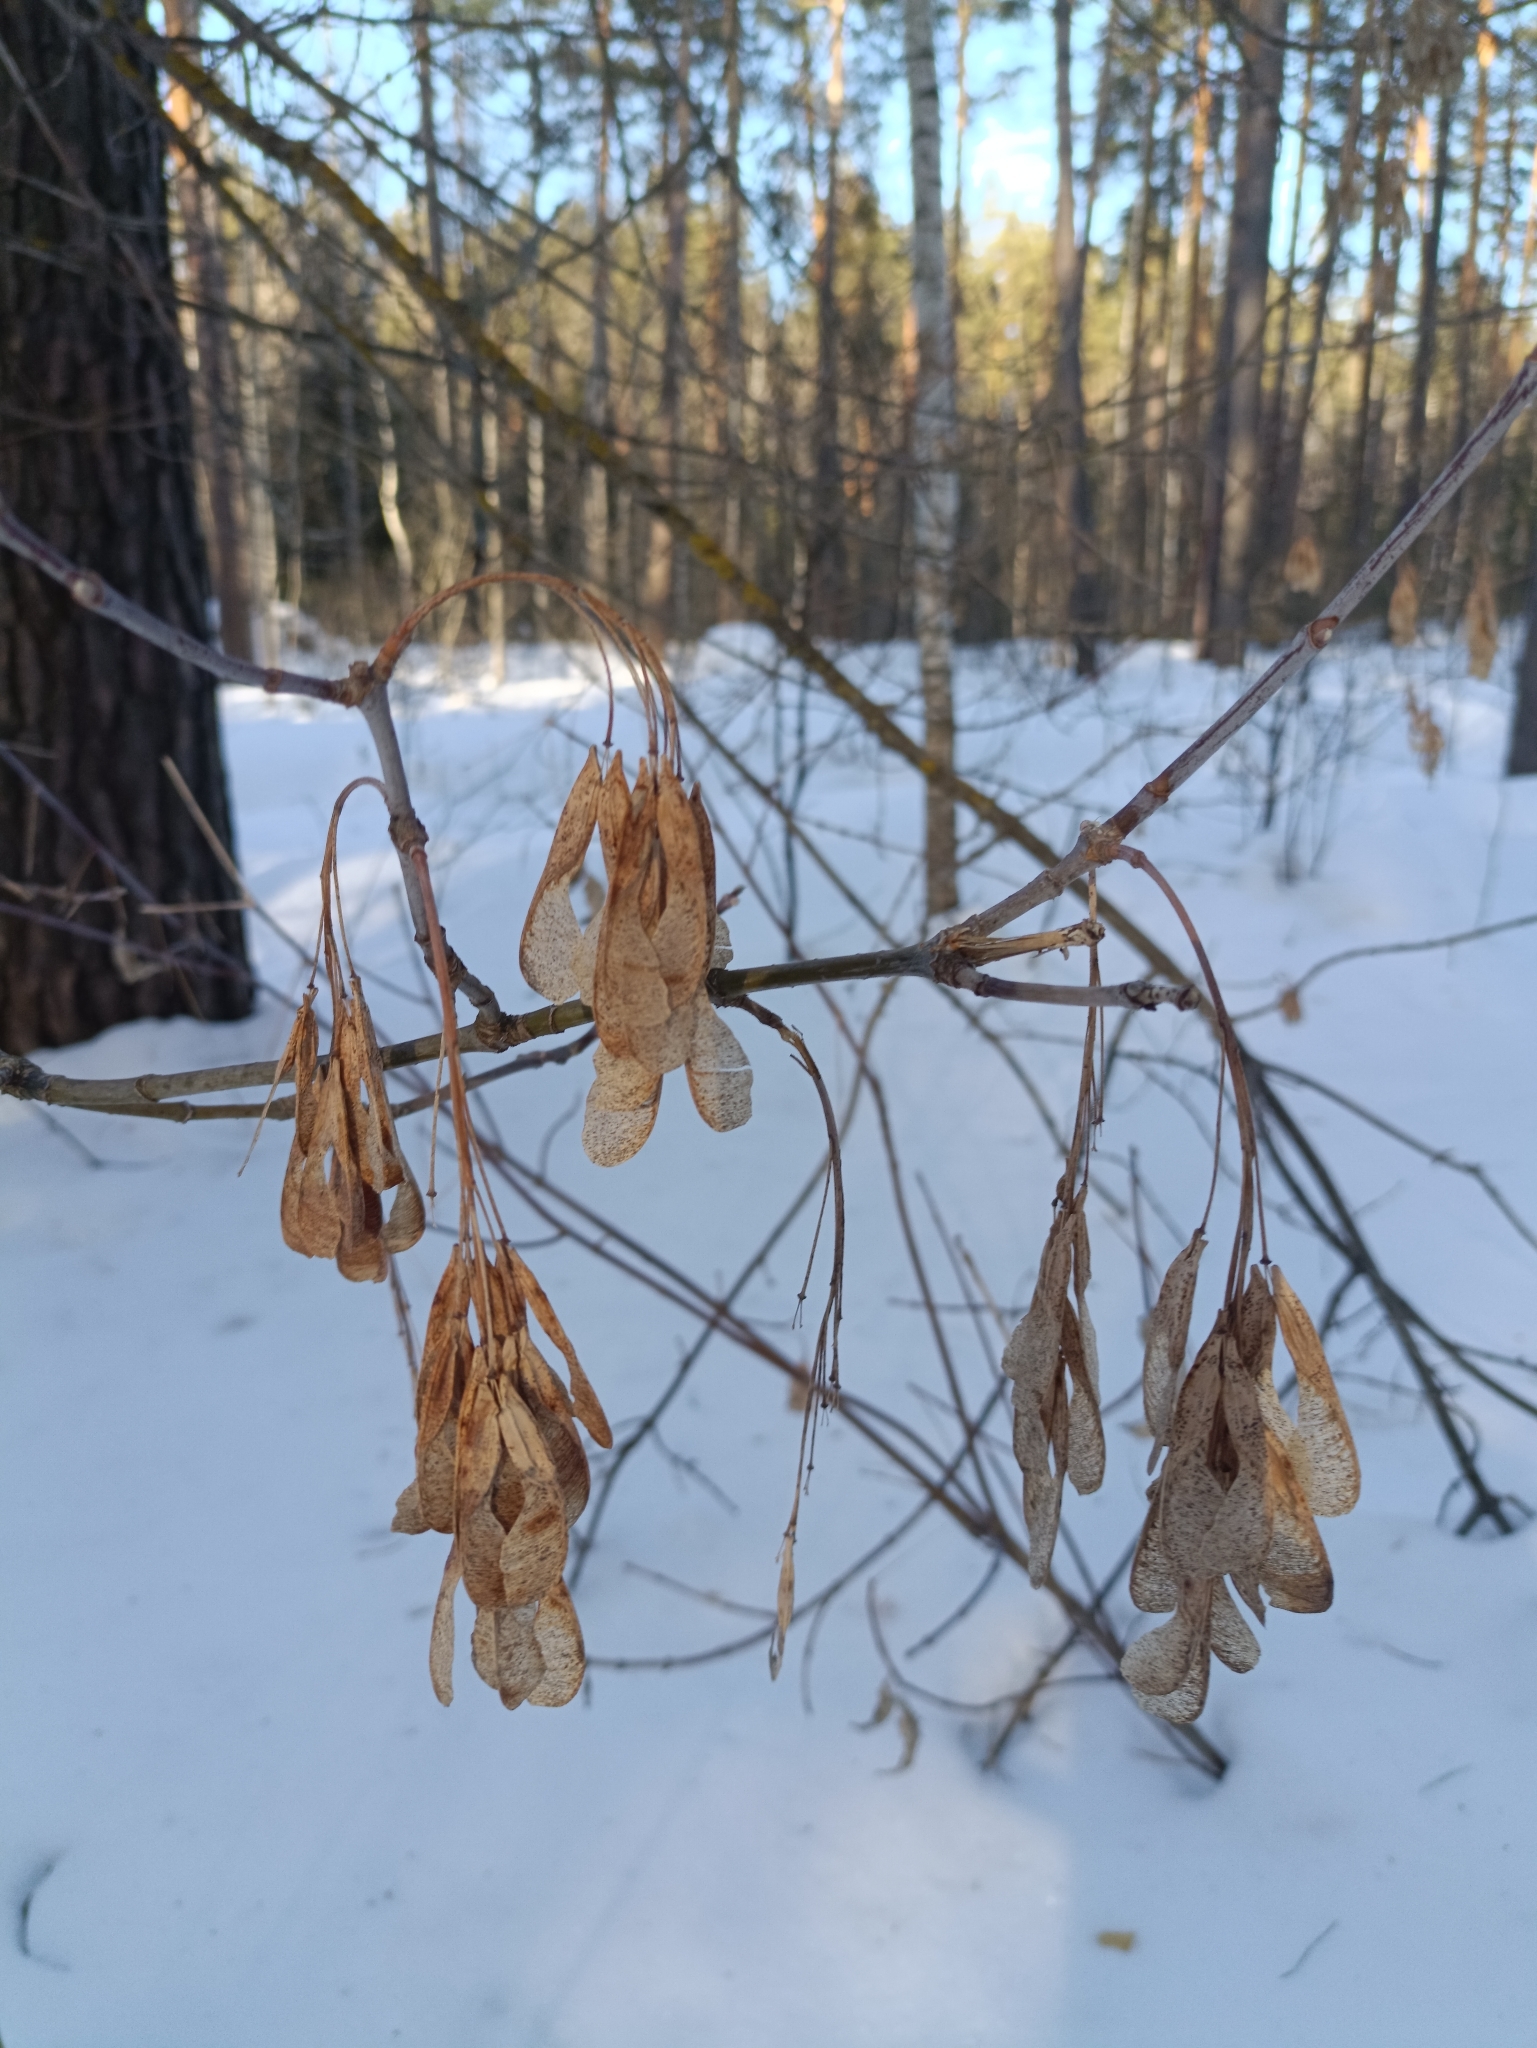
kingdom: Plantae
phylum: Tracheophyta
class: Magnoliopsida
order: Sapindales
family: Sapindaceae
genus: Acer
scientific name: Acer negundo
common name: Ashleaf maple
